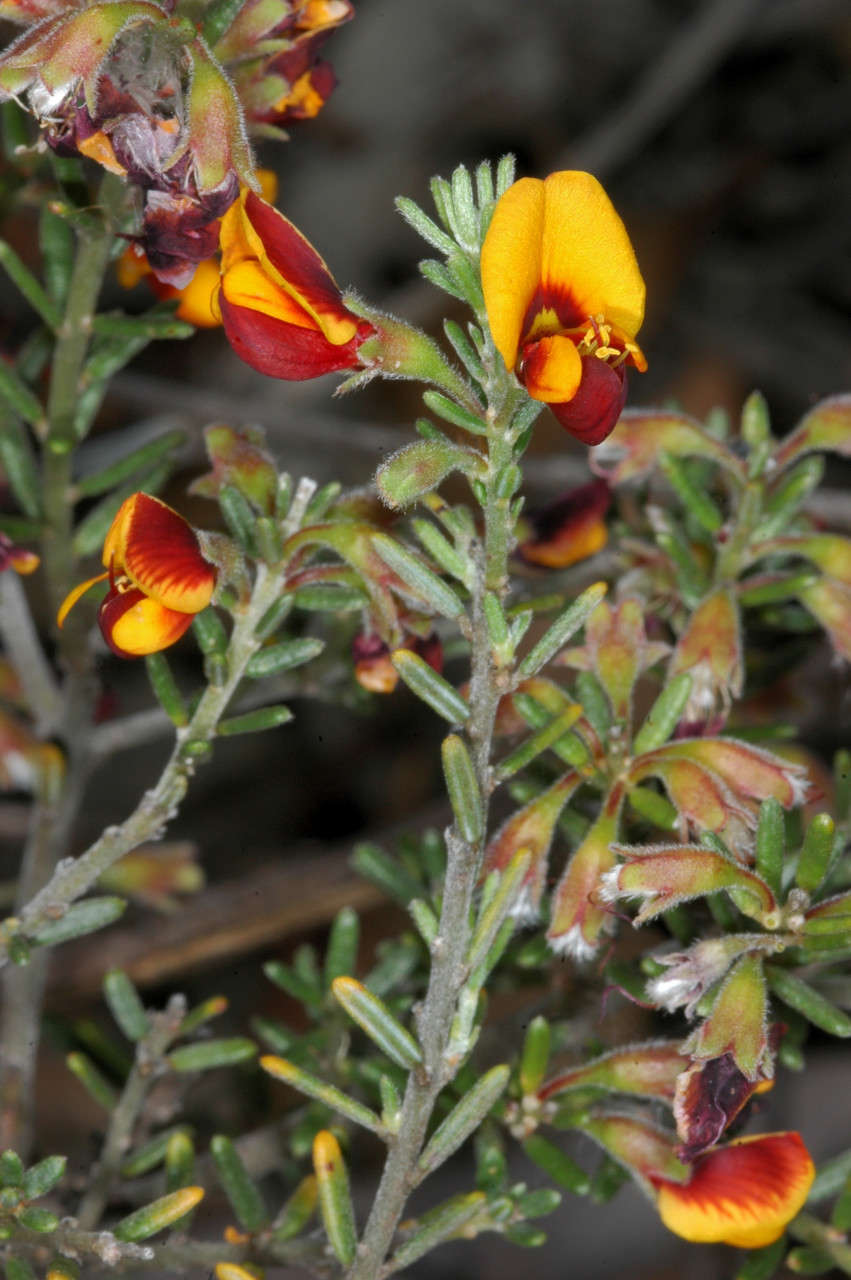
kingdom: Plantae
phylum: Tracheophyta
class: Magnoliopsida
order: Fabales
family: Fabaceae
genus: Aotus
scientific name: Aotus subspinescens
